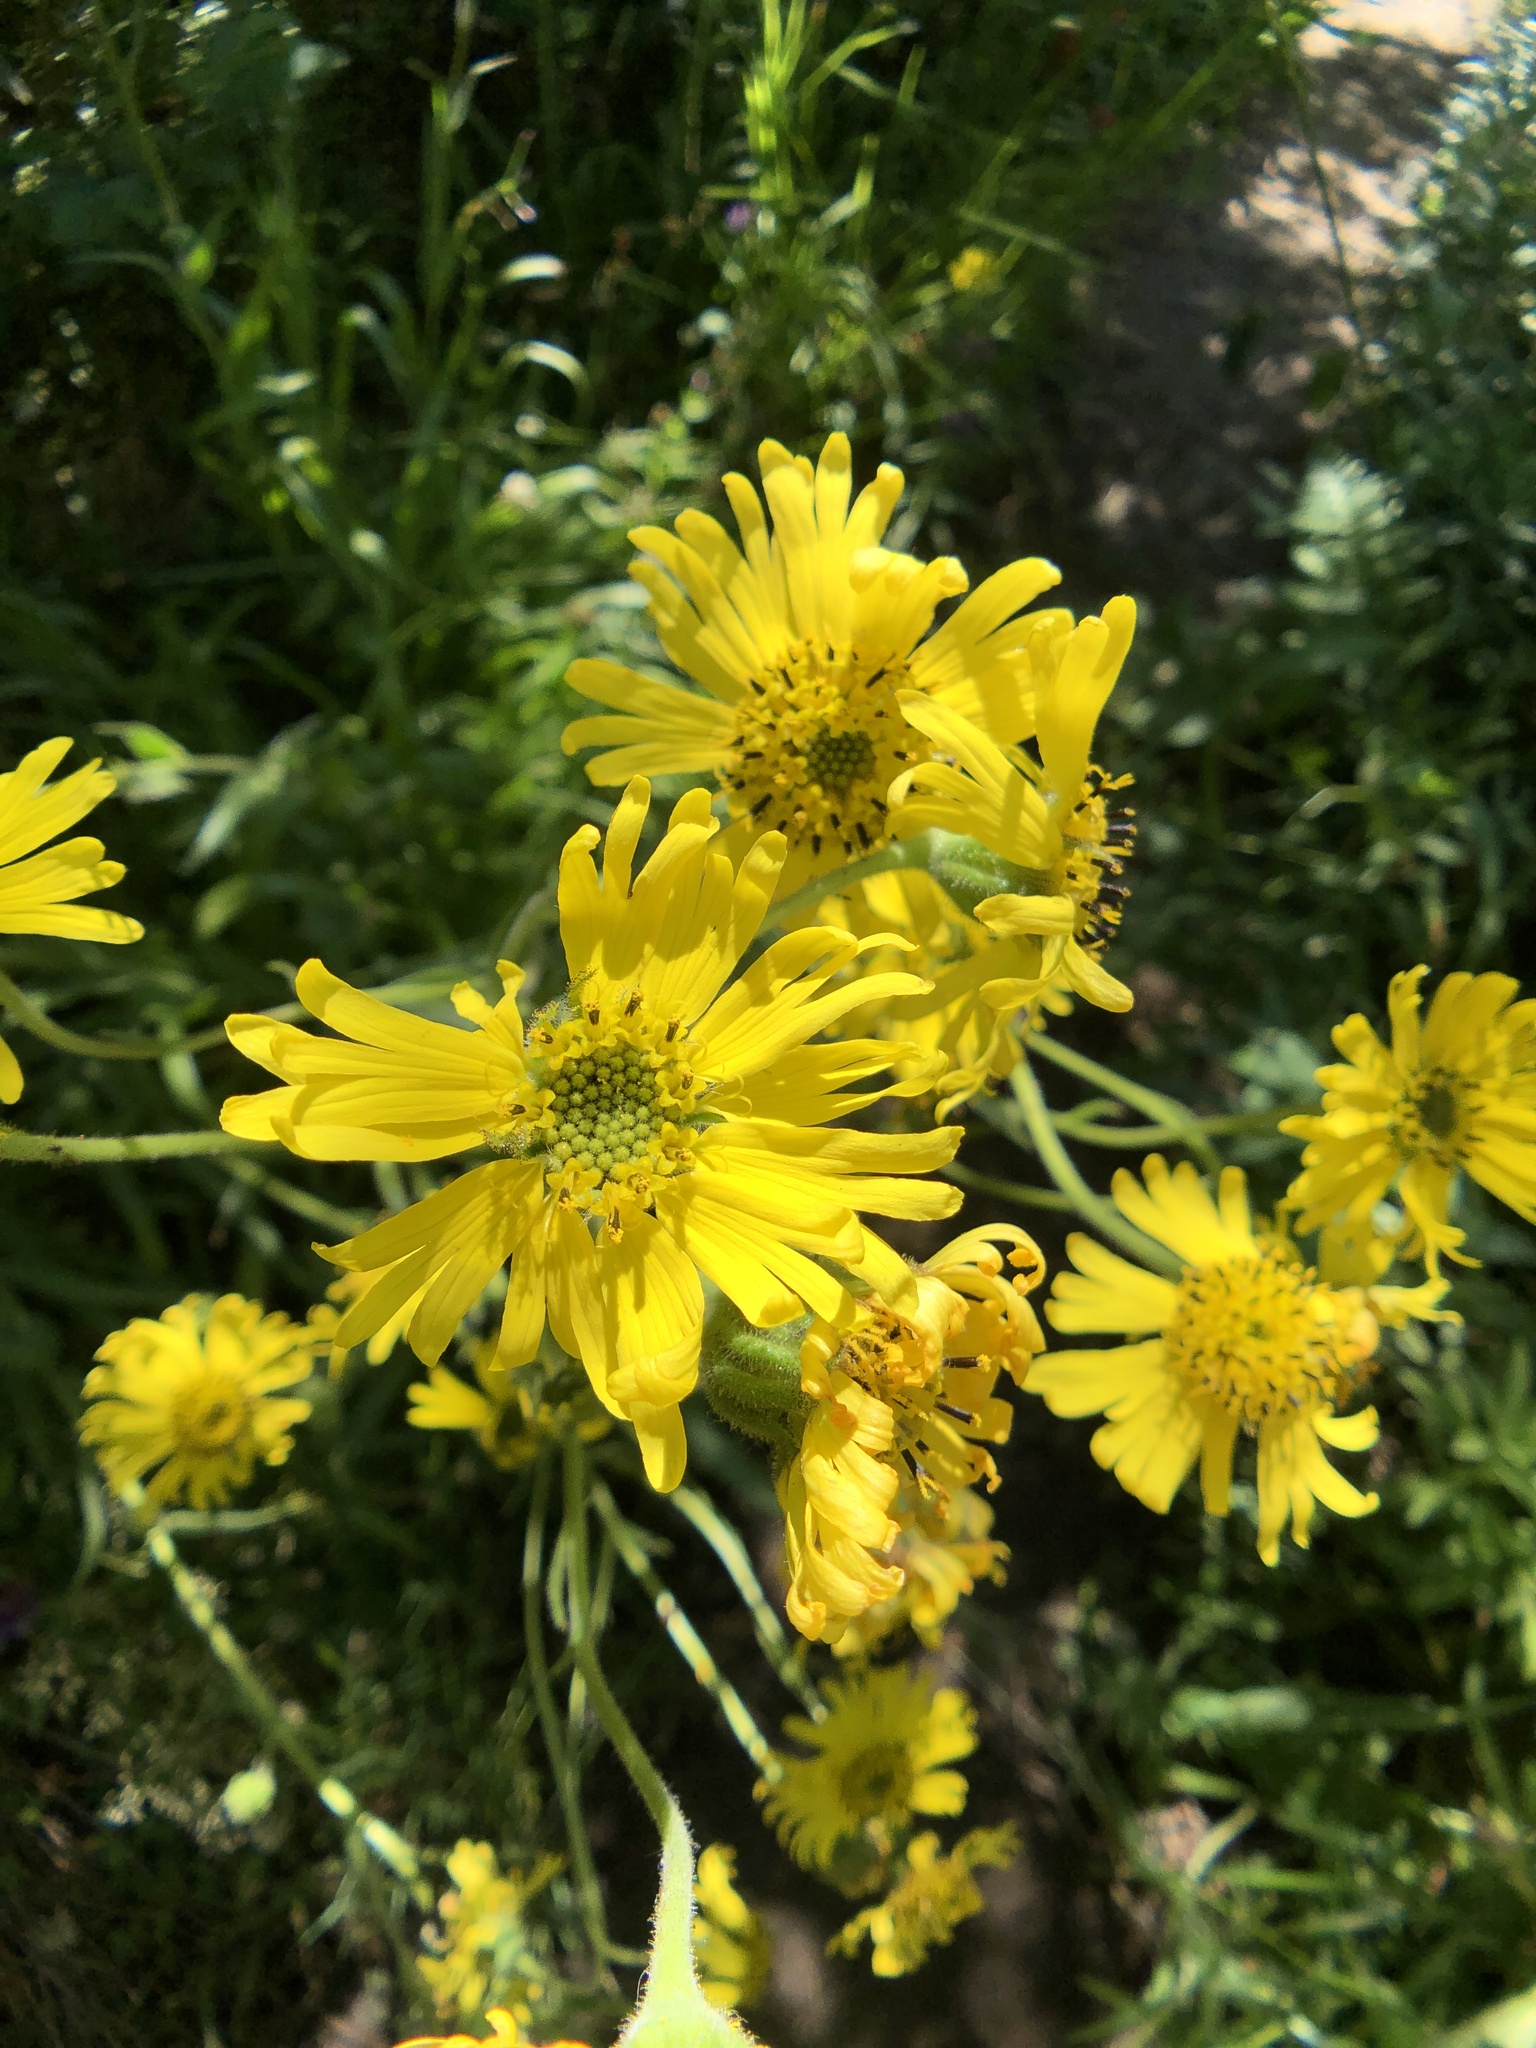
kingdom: Plantae
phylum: Tracheophyta
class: Magnoliopsida
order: Asterales
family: Asteraceae
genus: Kyhosia
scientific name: Kyhosia bolanderi
